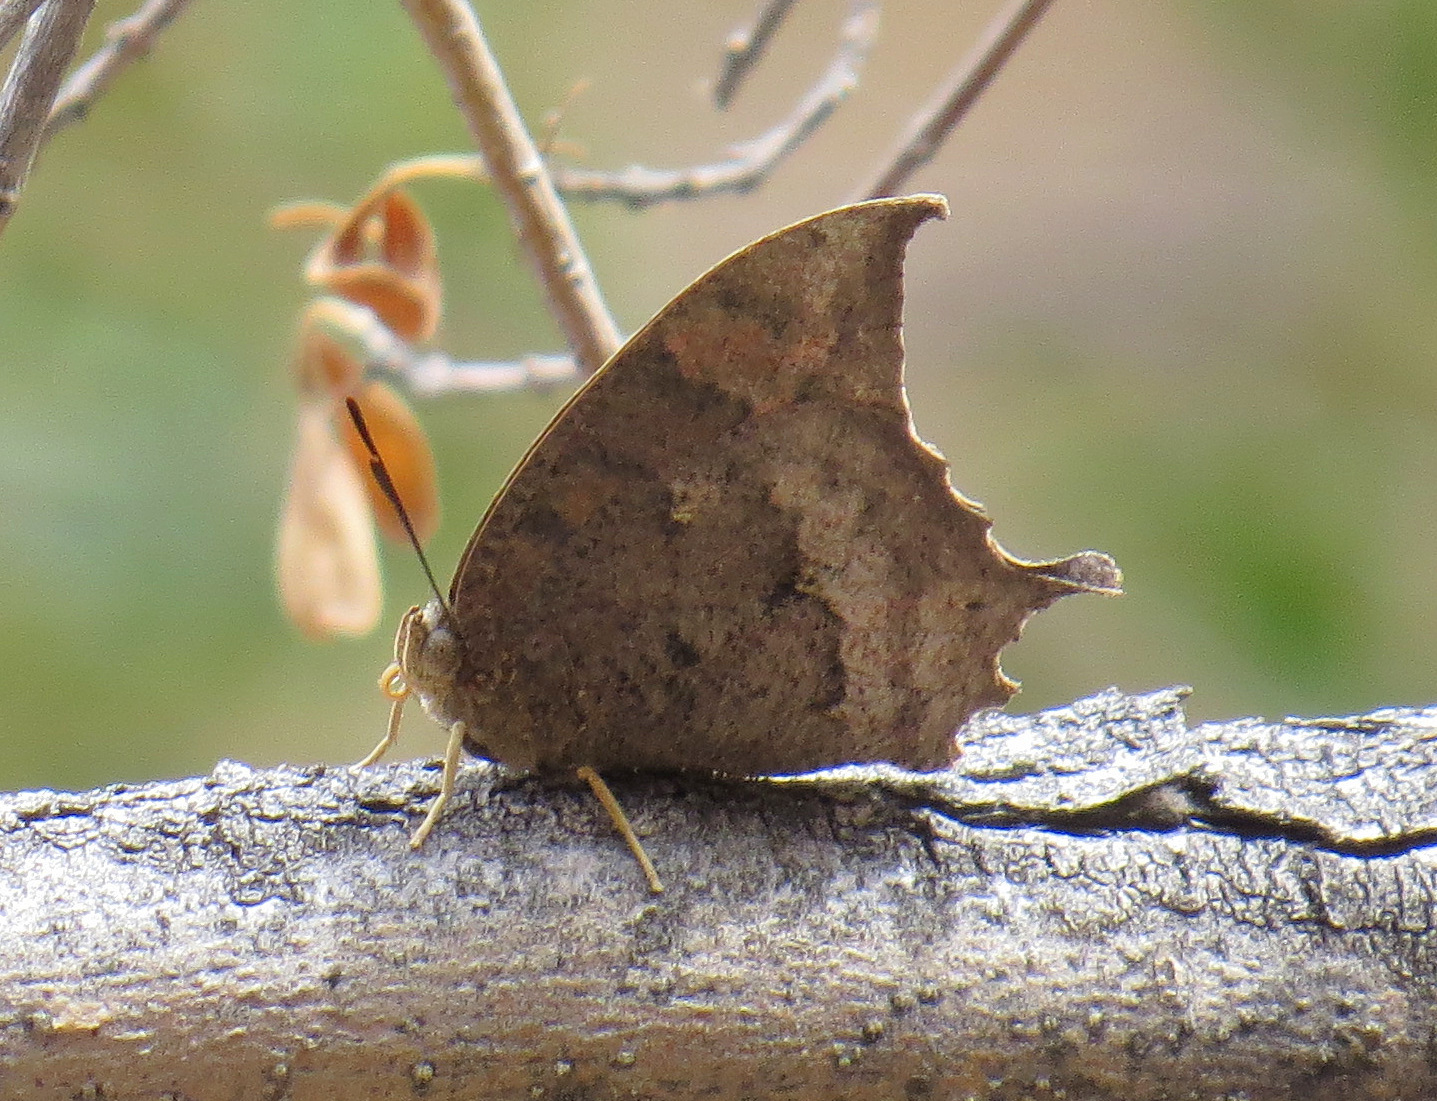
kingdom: Animalia
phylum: Arthropoda
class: Insecta
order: Lepidoptera
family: Nymphalidae
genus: Anaea
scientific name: Anaea aidea
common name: Tropical leafwing
